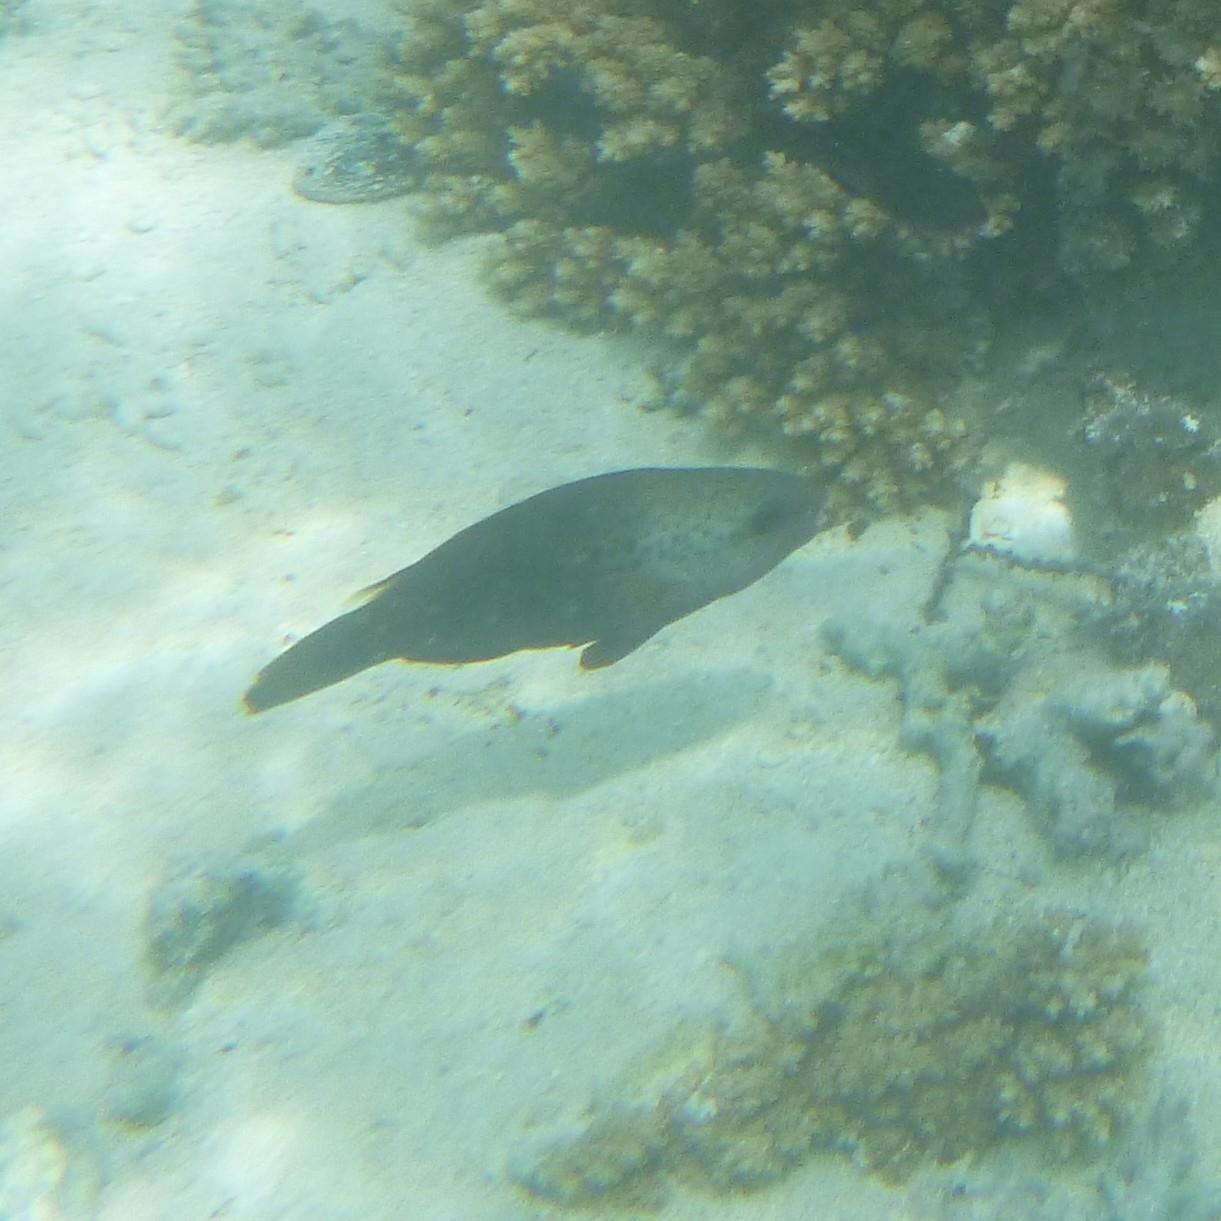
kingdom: Animalia
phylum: Chordata
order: Perciformes
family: Scaridae
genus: Chlorurus
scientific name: Chlorurus spilurus
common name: Bullethead parrotfish
